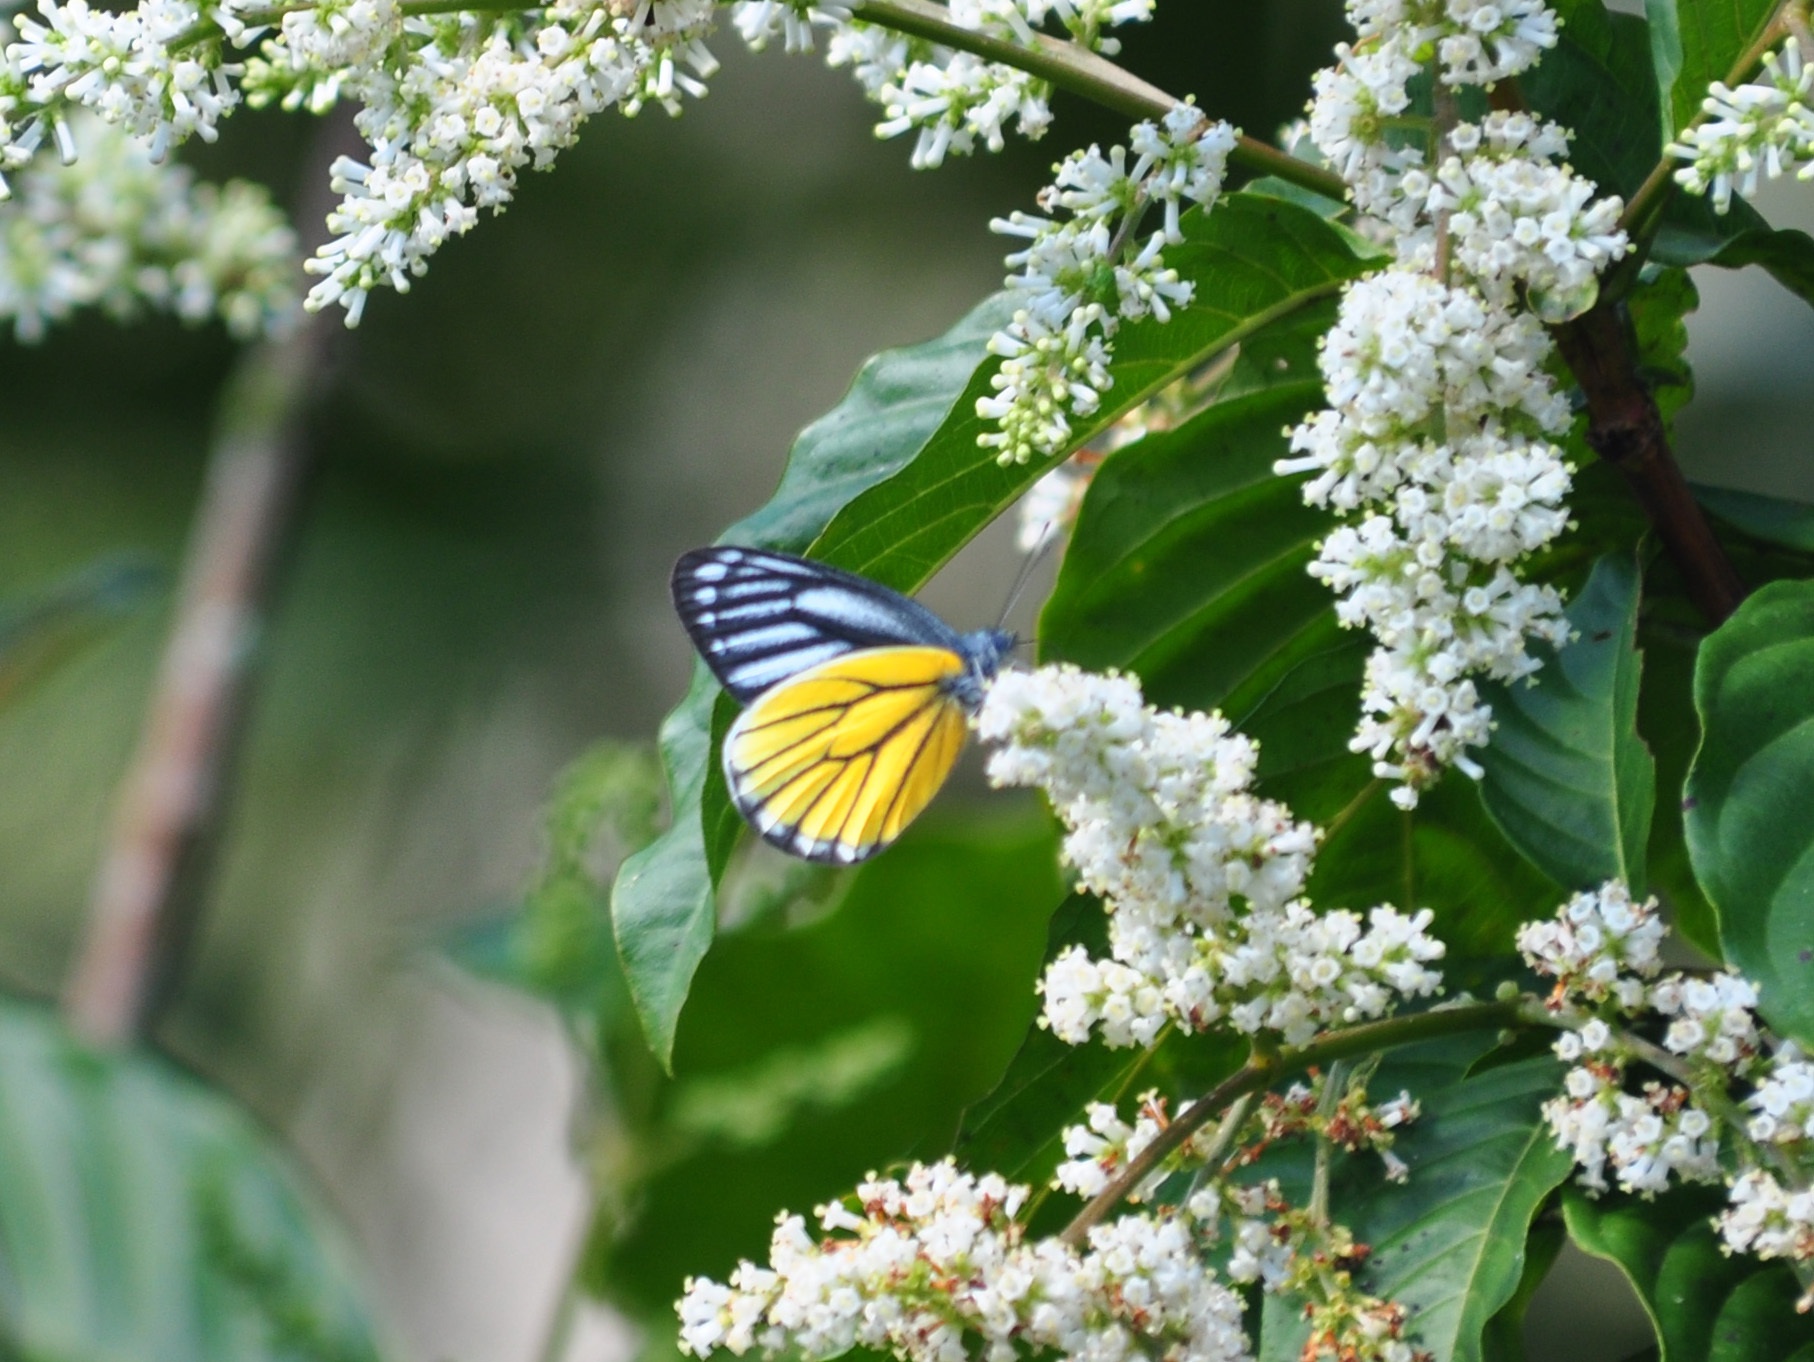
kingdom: Animalia
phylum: Arthropoda
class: Insecta
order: Lepidoptera
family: Pieridae
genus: Delias
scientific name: Delias baracasa
